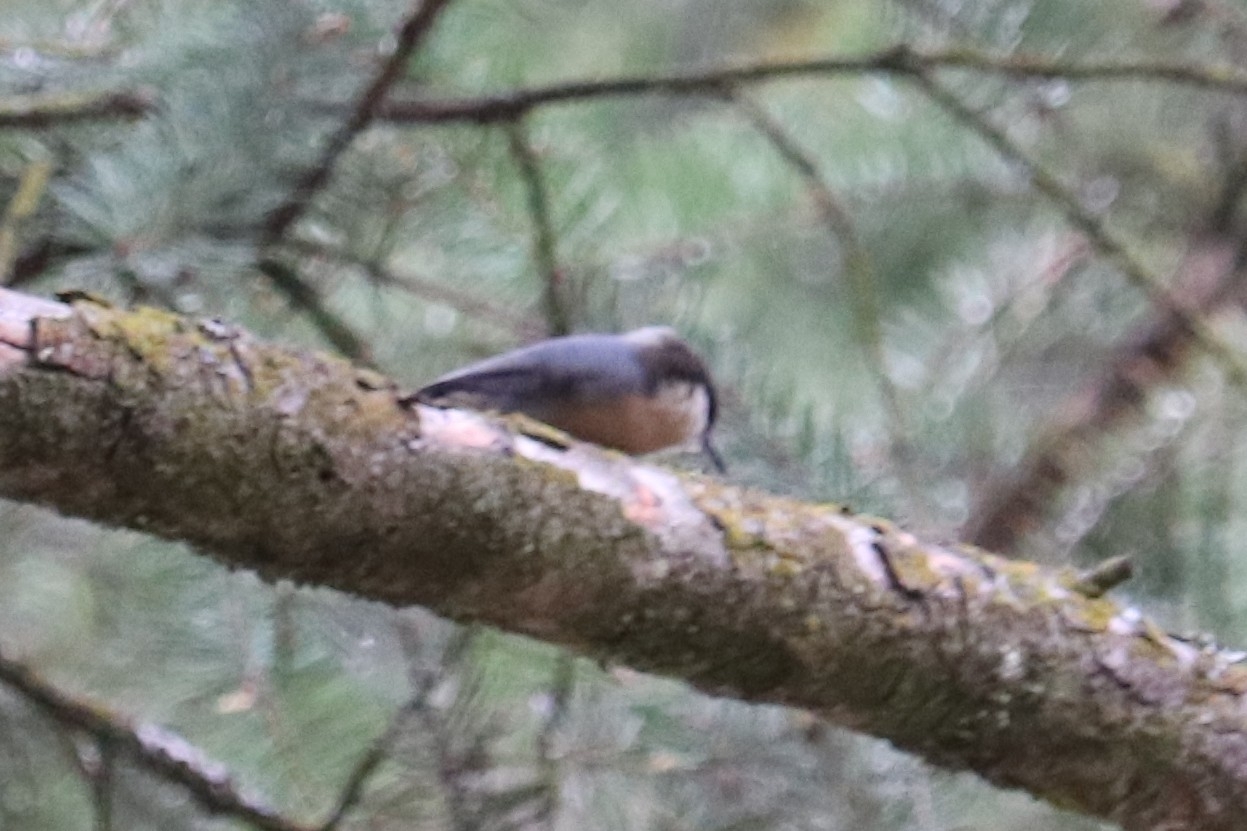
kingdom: Animalia
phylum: Chordata
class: Aves
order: Passeriformes
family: Sittidae
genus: Sitta
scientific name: Sitta pygmaea
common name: Pygmy nuthatch
